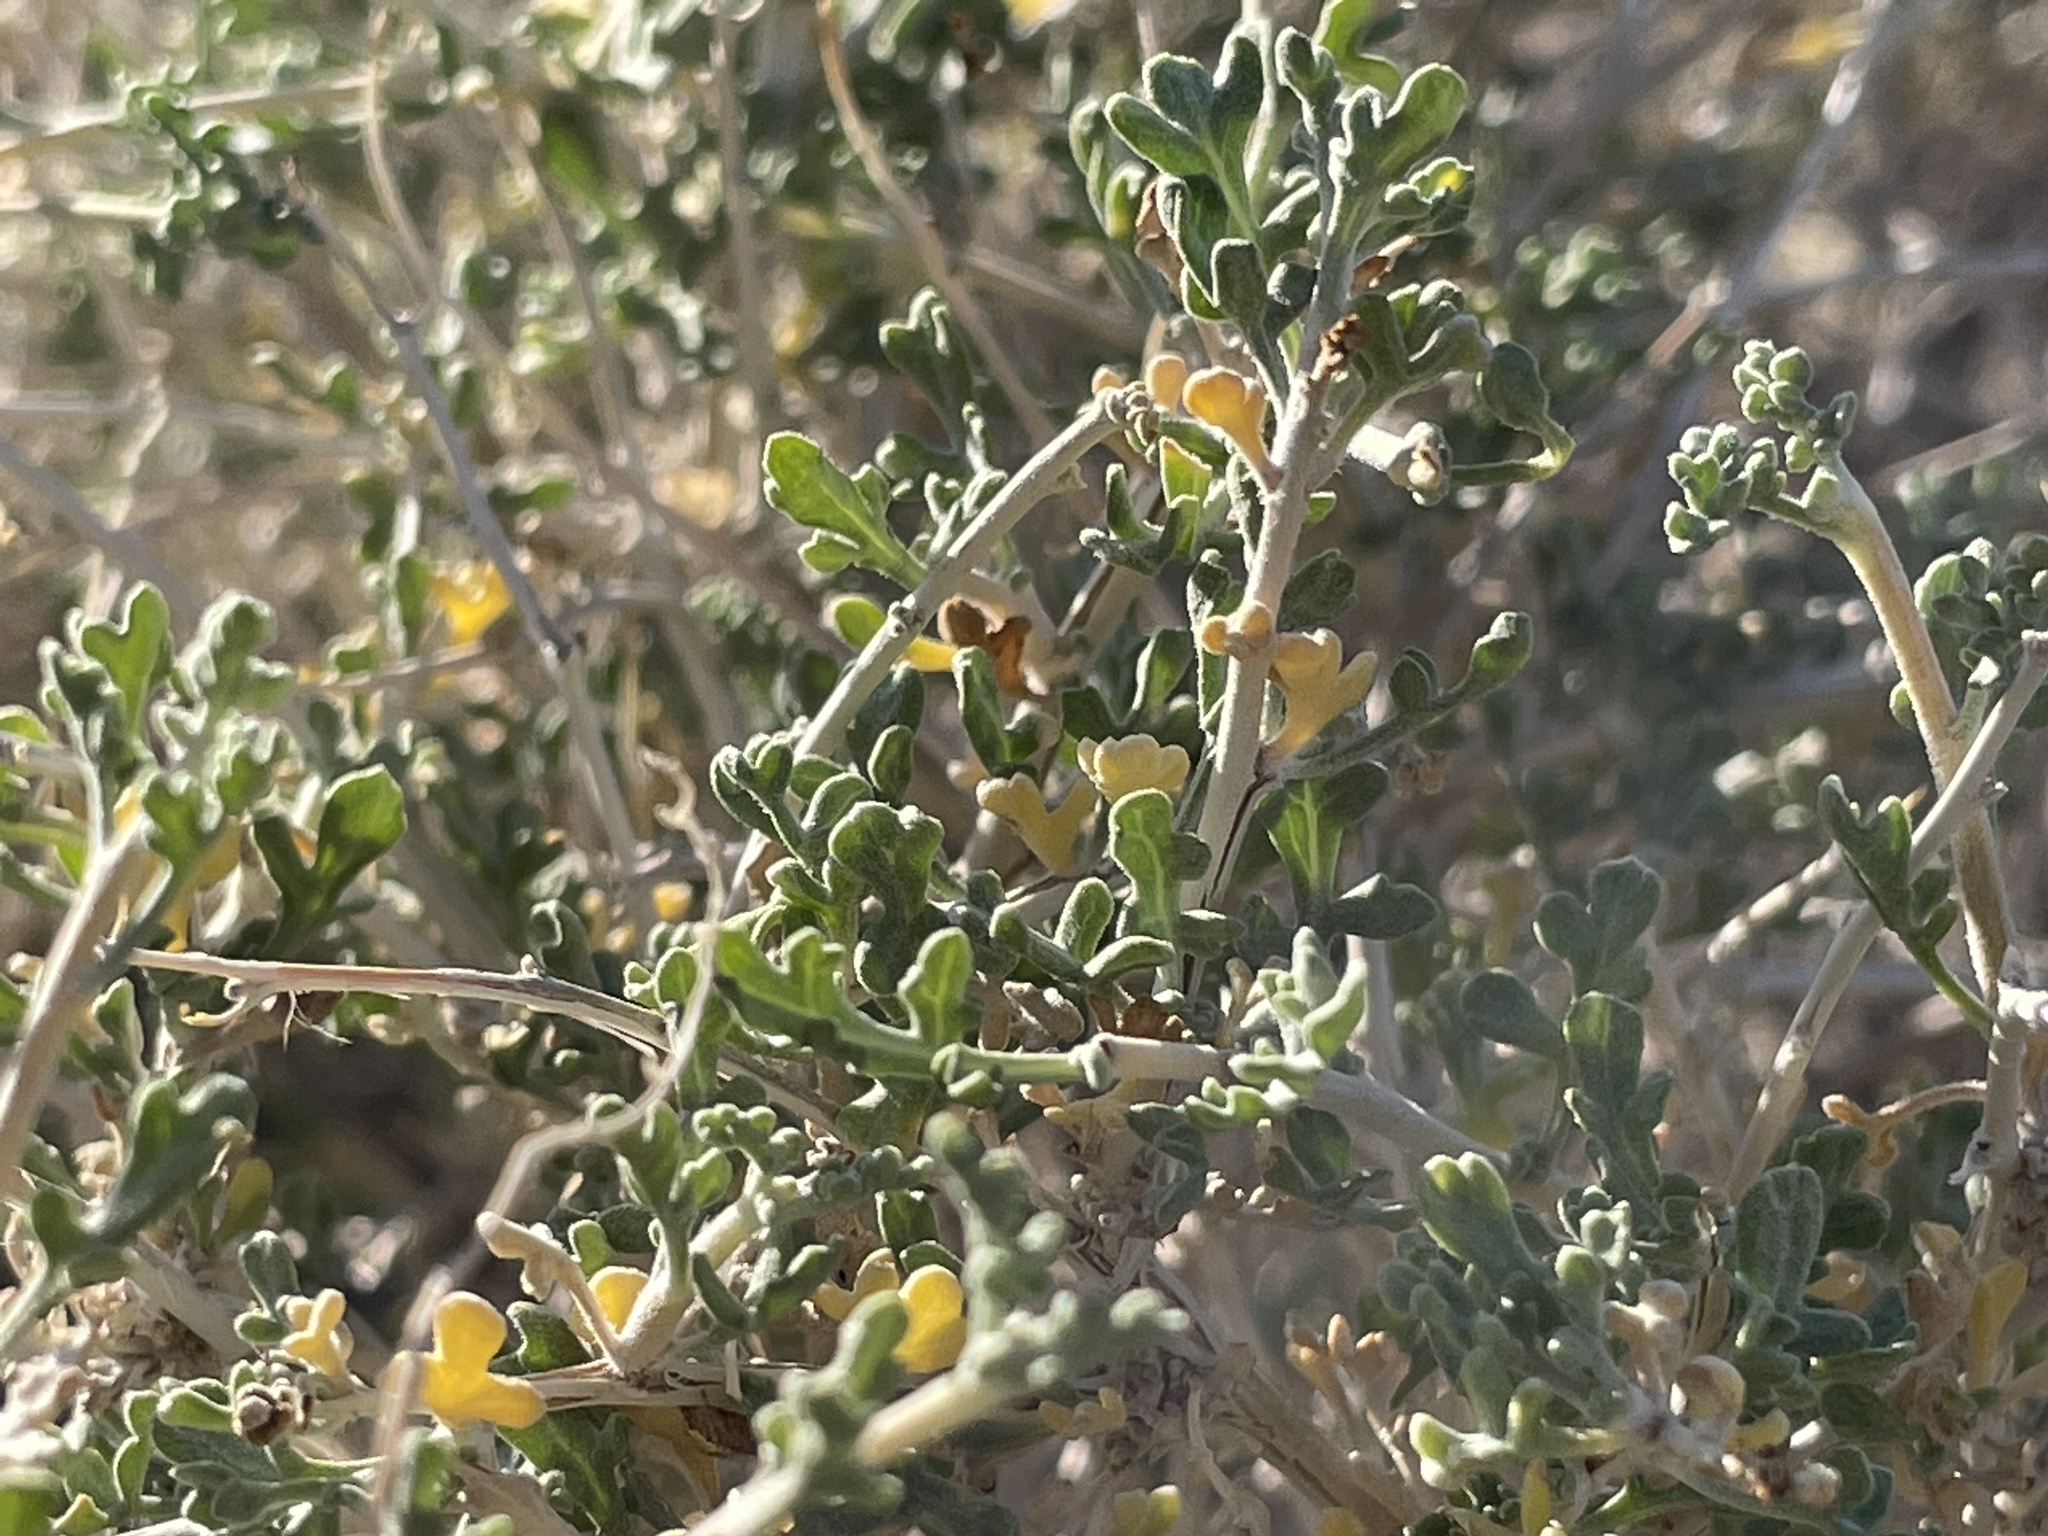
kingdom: Plantae
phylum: Tracheophyta
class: Magnoliopsida
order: Asterales
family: Asteraceae
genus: Ambrosia
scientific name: Ambrosia dumosa
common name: Bur-sage
